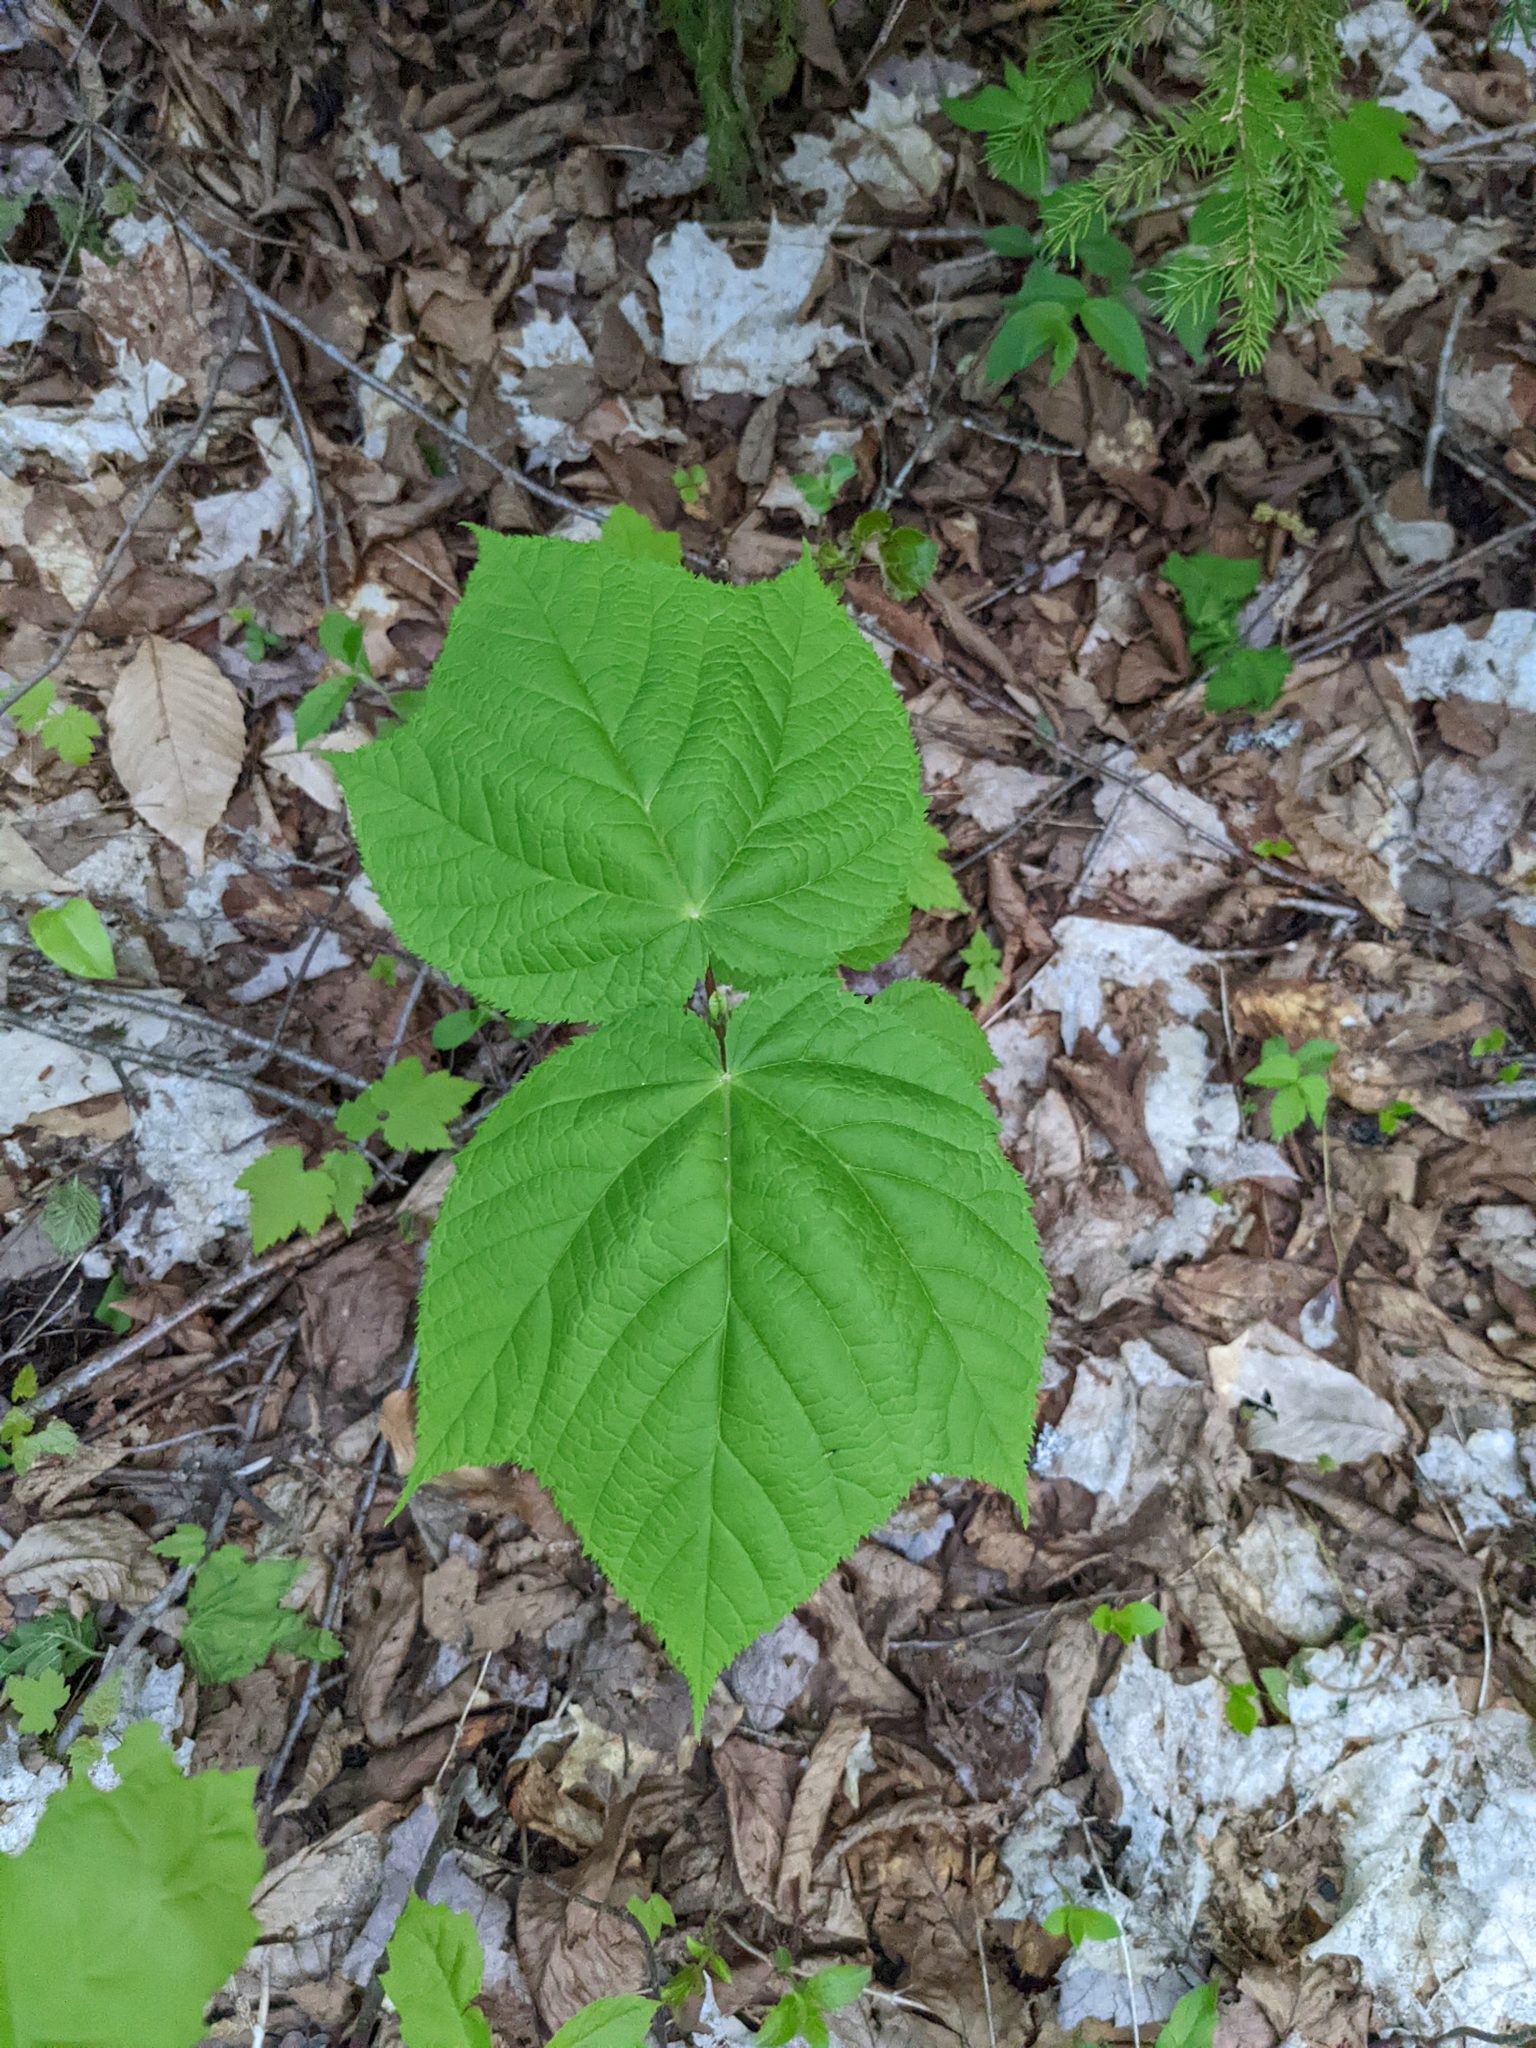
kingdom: Plantae
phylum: Tracheophyta
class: Magnoliopsida
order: Sapindales
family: Sapindaceae
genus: Acer
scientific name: Acer pensylvanicum
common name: Moosewood
